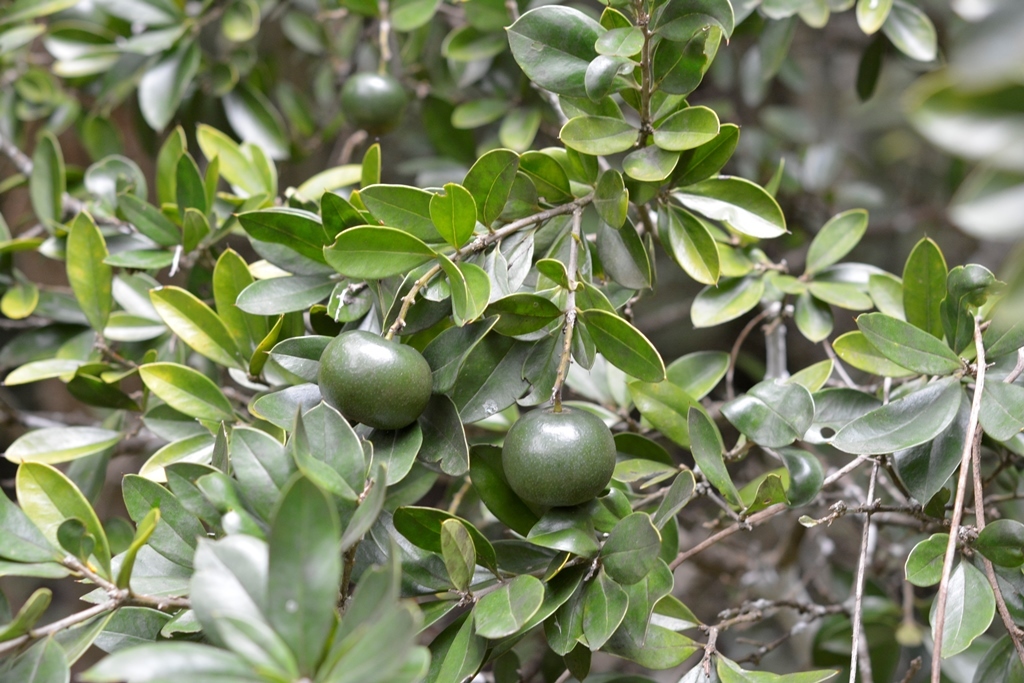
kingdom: Plantae
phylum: Tracheophyta
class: Magnoliopsida
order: Ericales
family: Primulaceae
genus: Bonellia
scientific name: Bonellia macrocarpa
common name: Primrose
